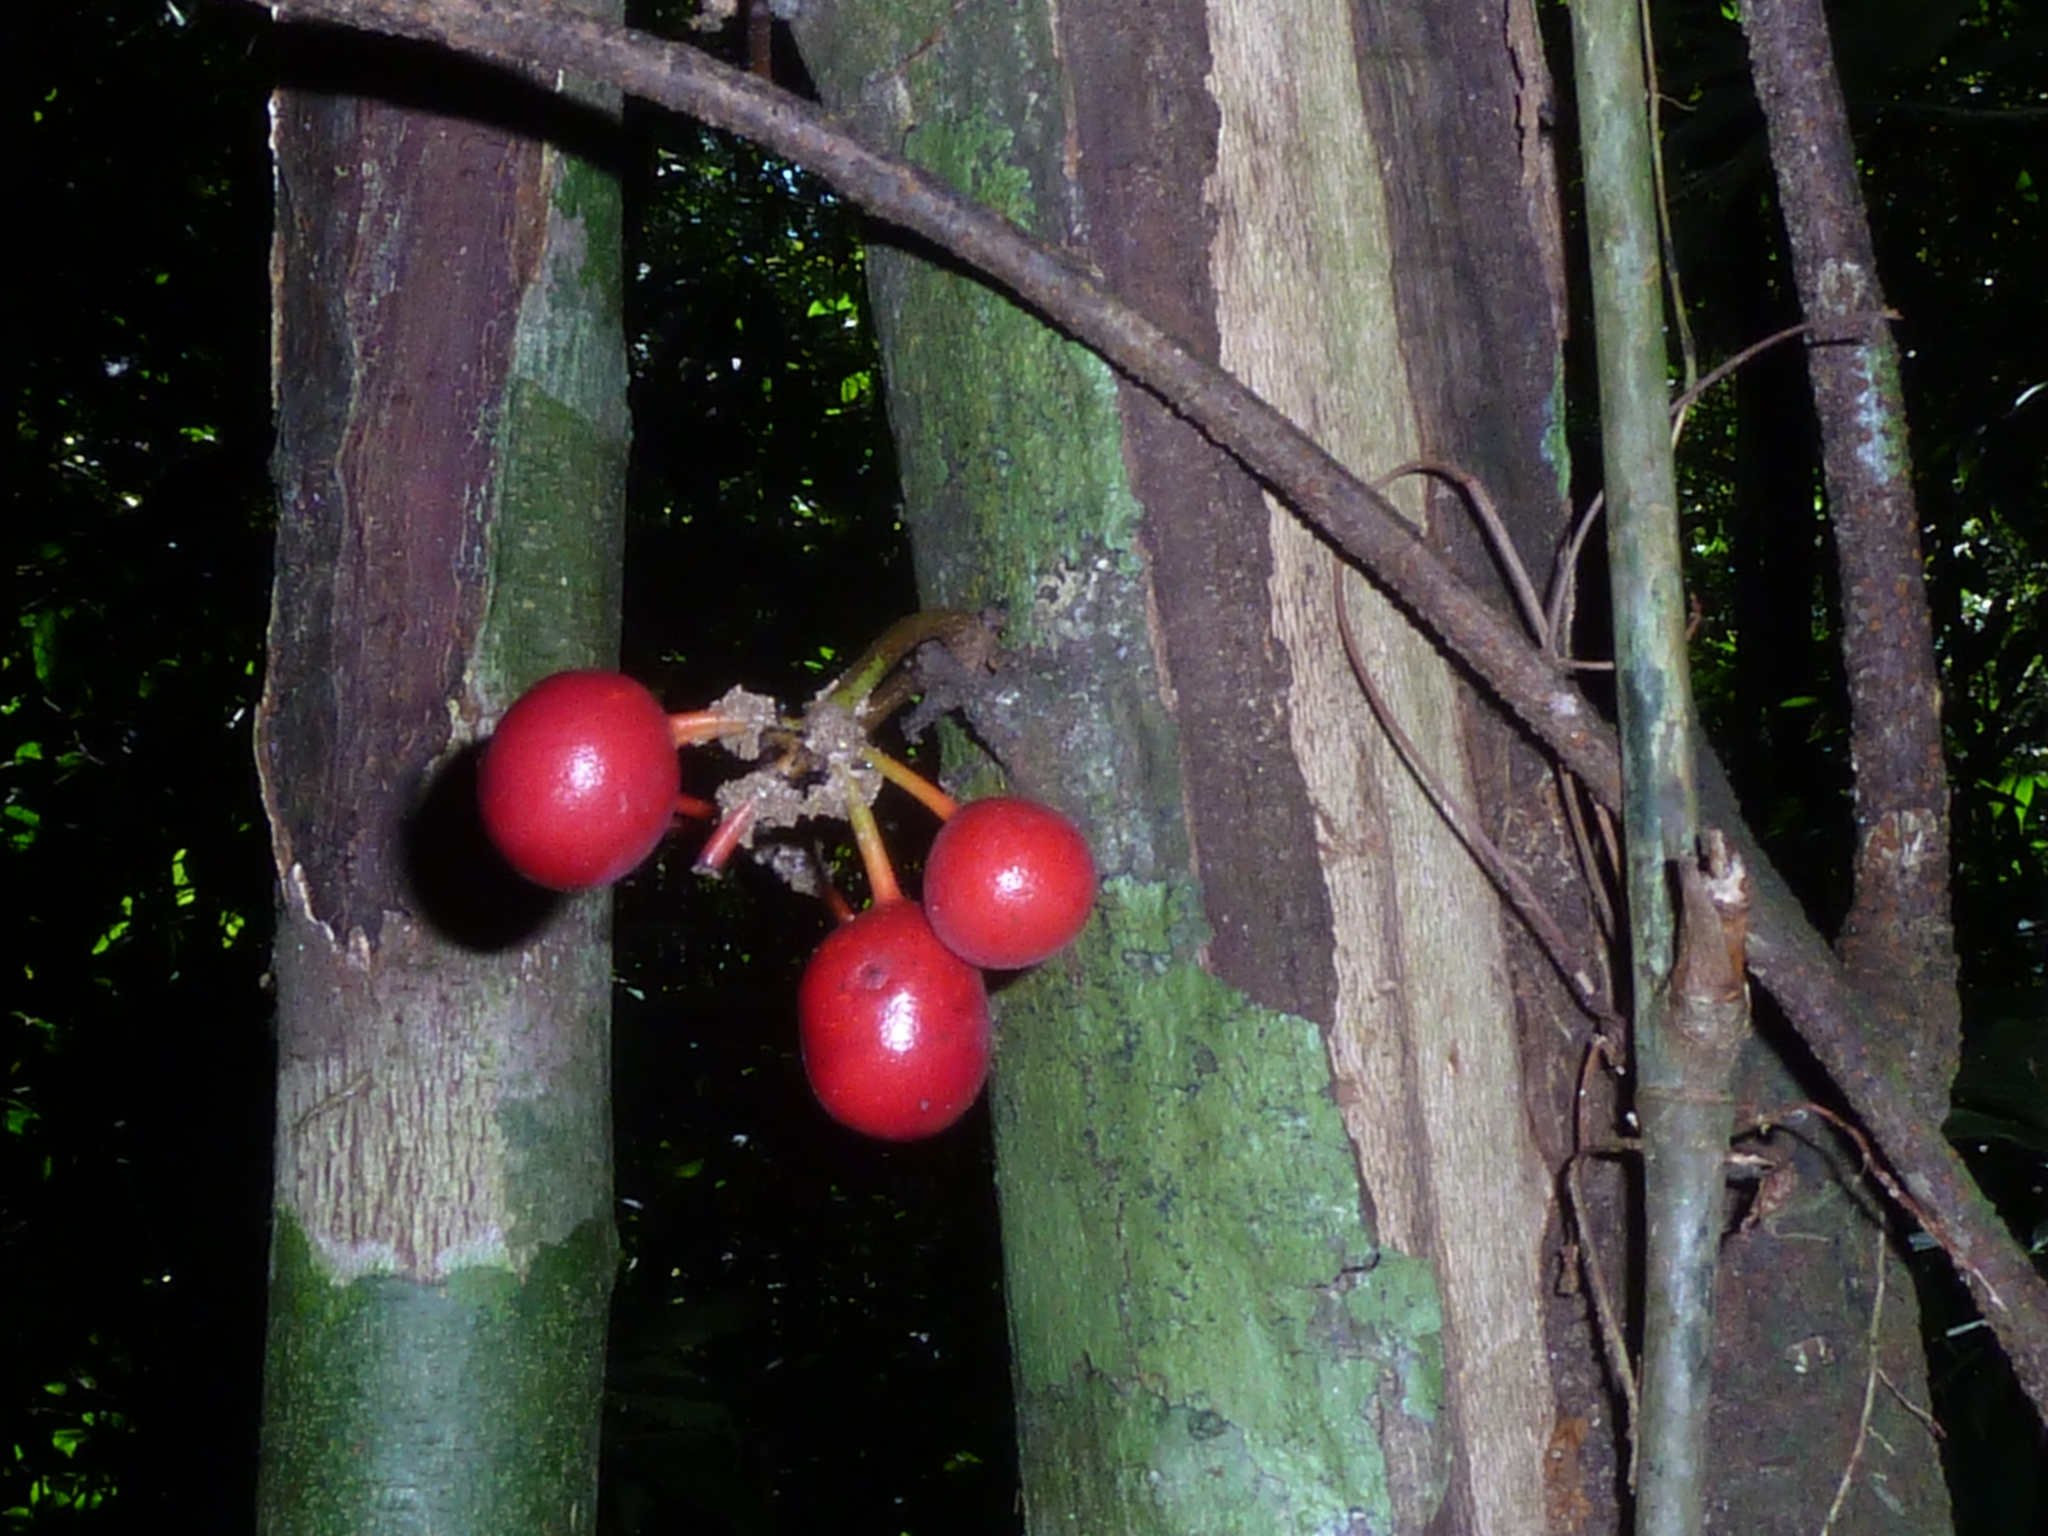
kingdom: Plantae
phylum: Tracheophyta
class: Magnoliopsida
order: Magnoliales
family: Annonaceae
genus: Unonopsis
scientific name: Unonopsis osae
